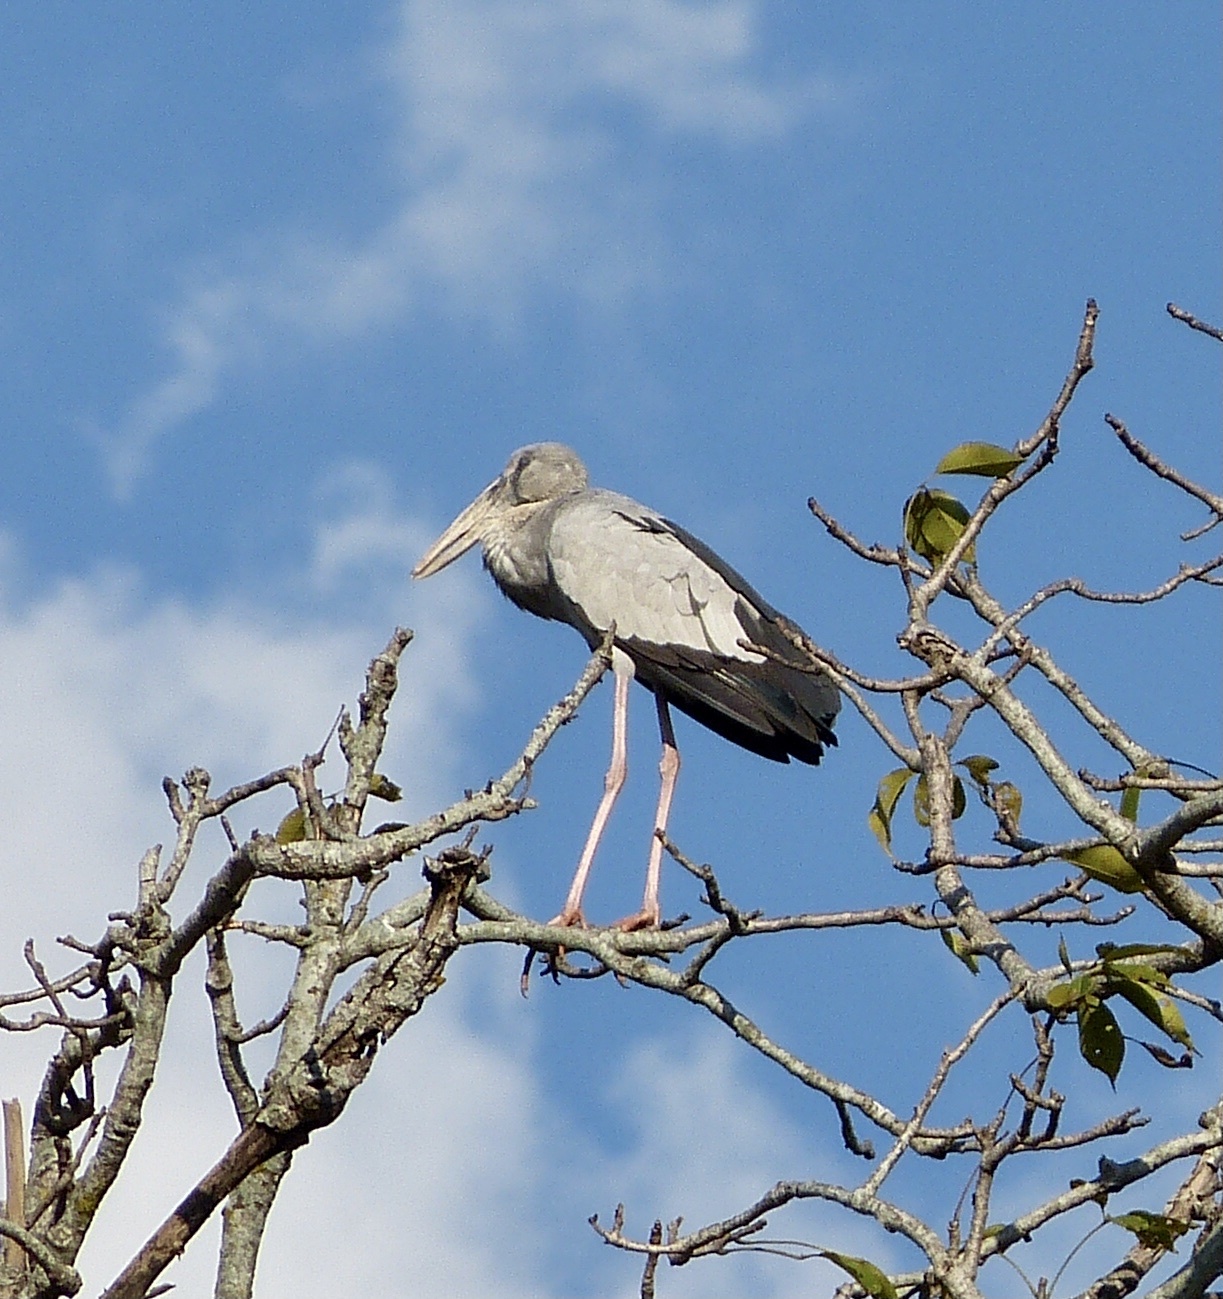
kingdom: Animalia
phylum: Chordata
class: Aves
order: Ciconiiformes
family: Ciconiidae
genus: Anastomus
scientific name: Anastomus oscitans
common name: Asian openbill
